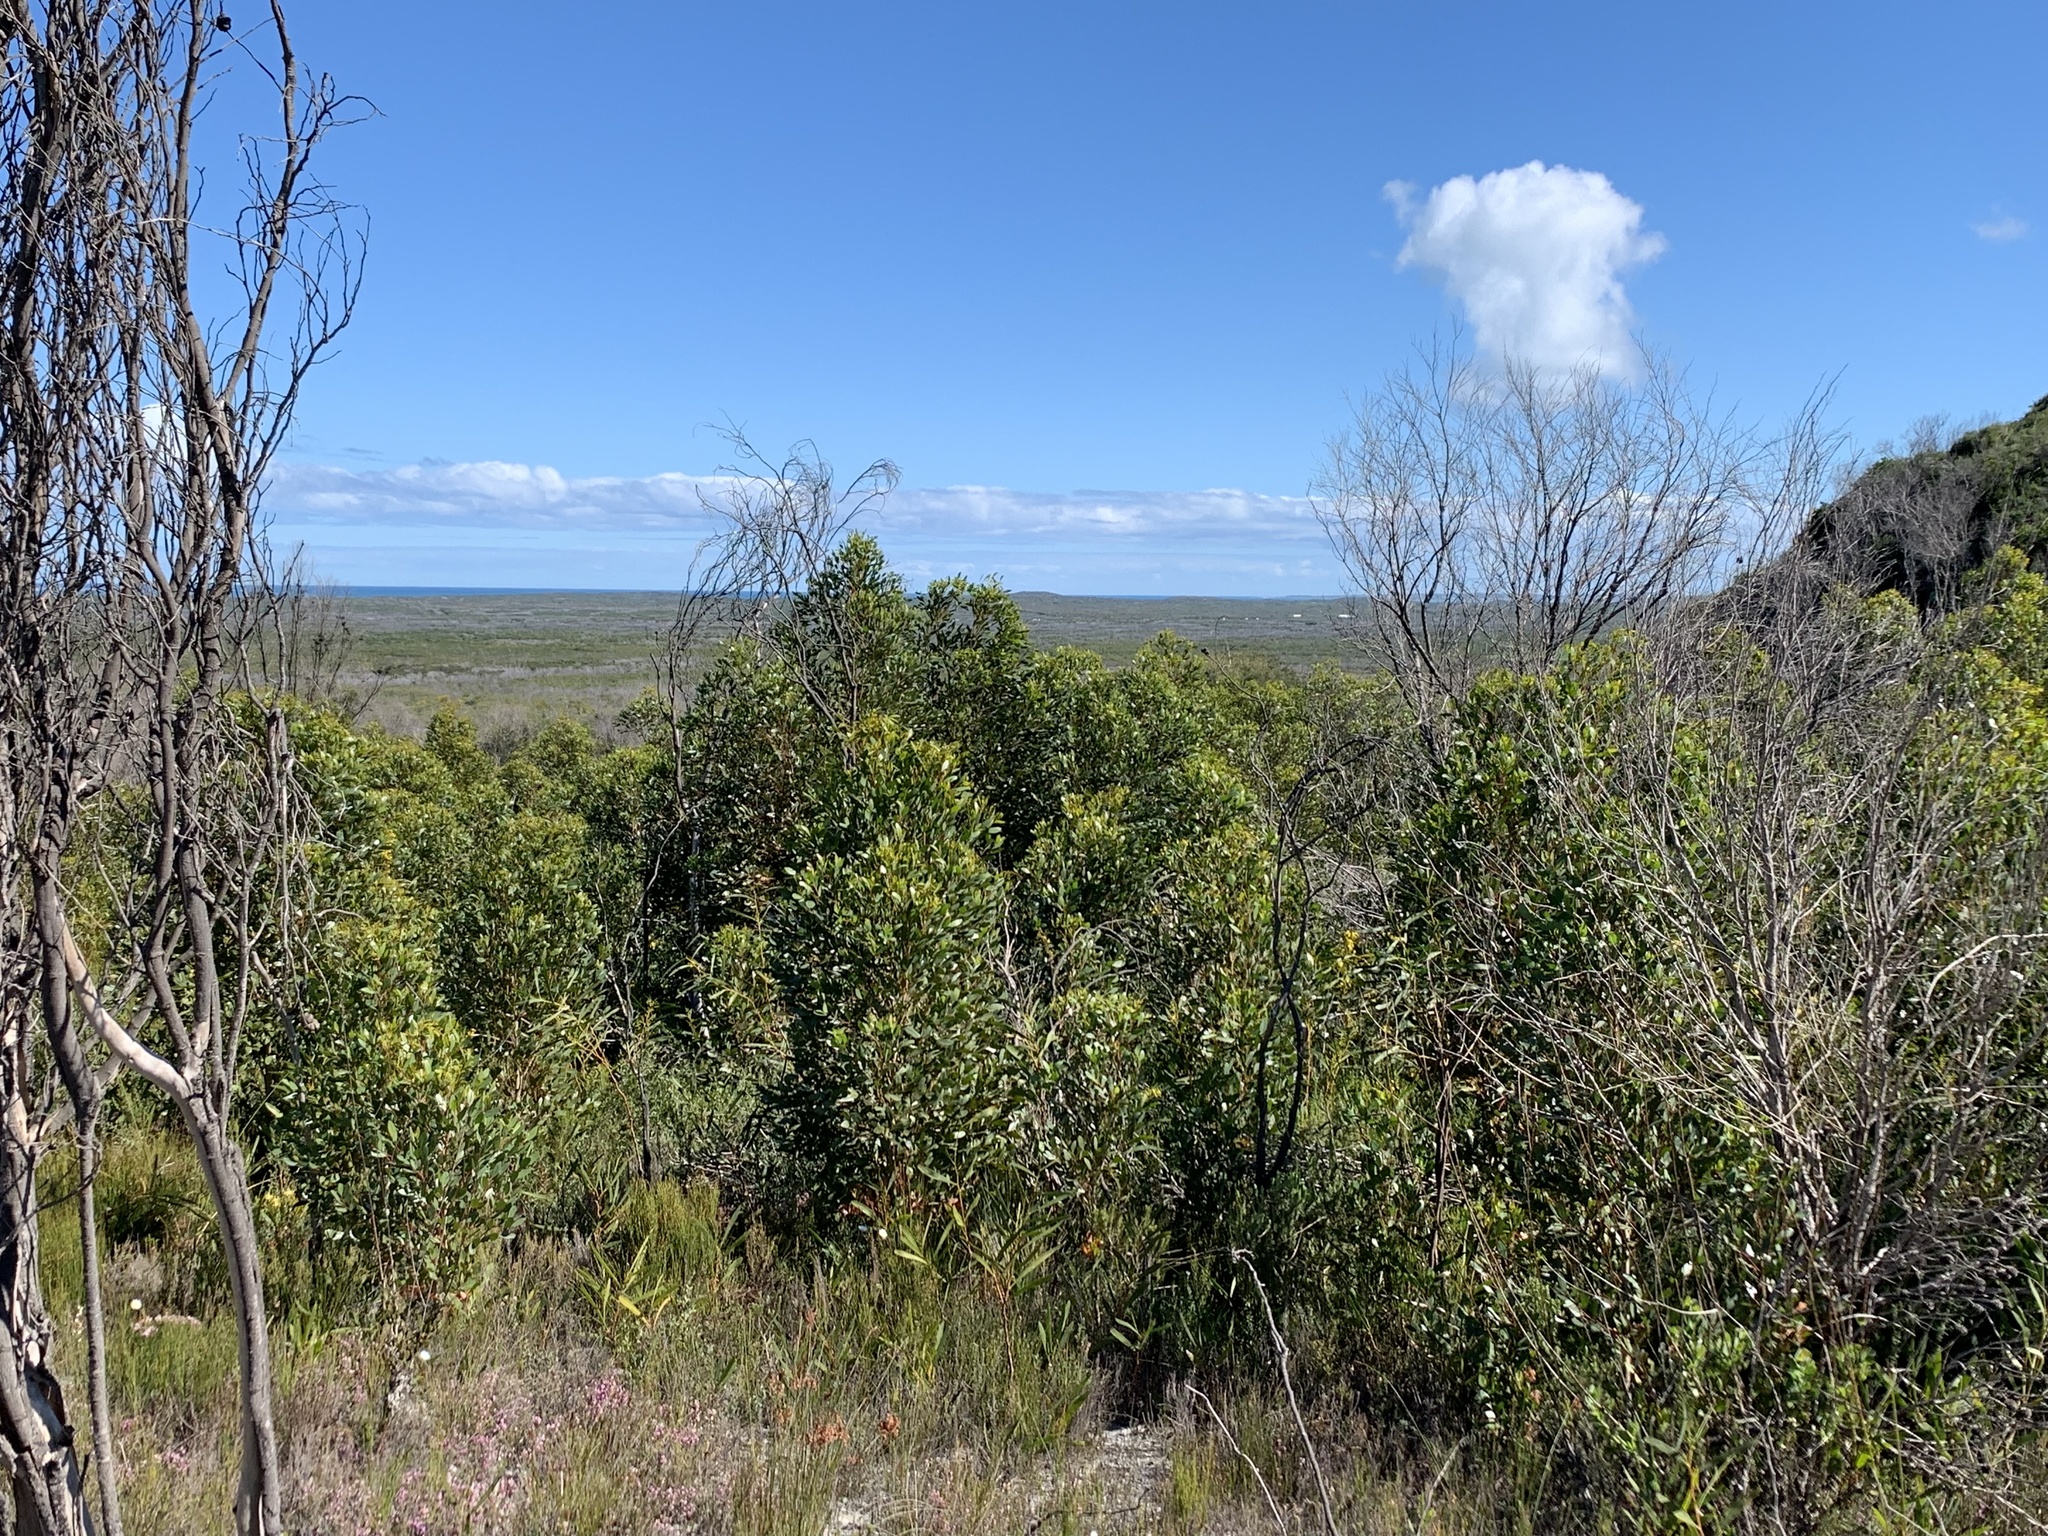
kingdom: Plantae
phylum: Tracheophyta
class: Magnoliopsida
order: Myrtales
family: Myrtaceae
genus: Eucalyptus
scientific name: Eucalyptus conferruminata
